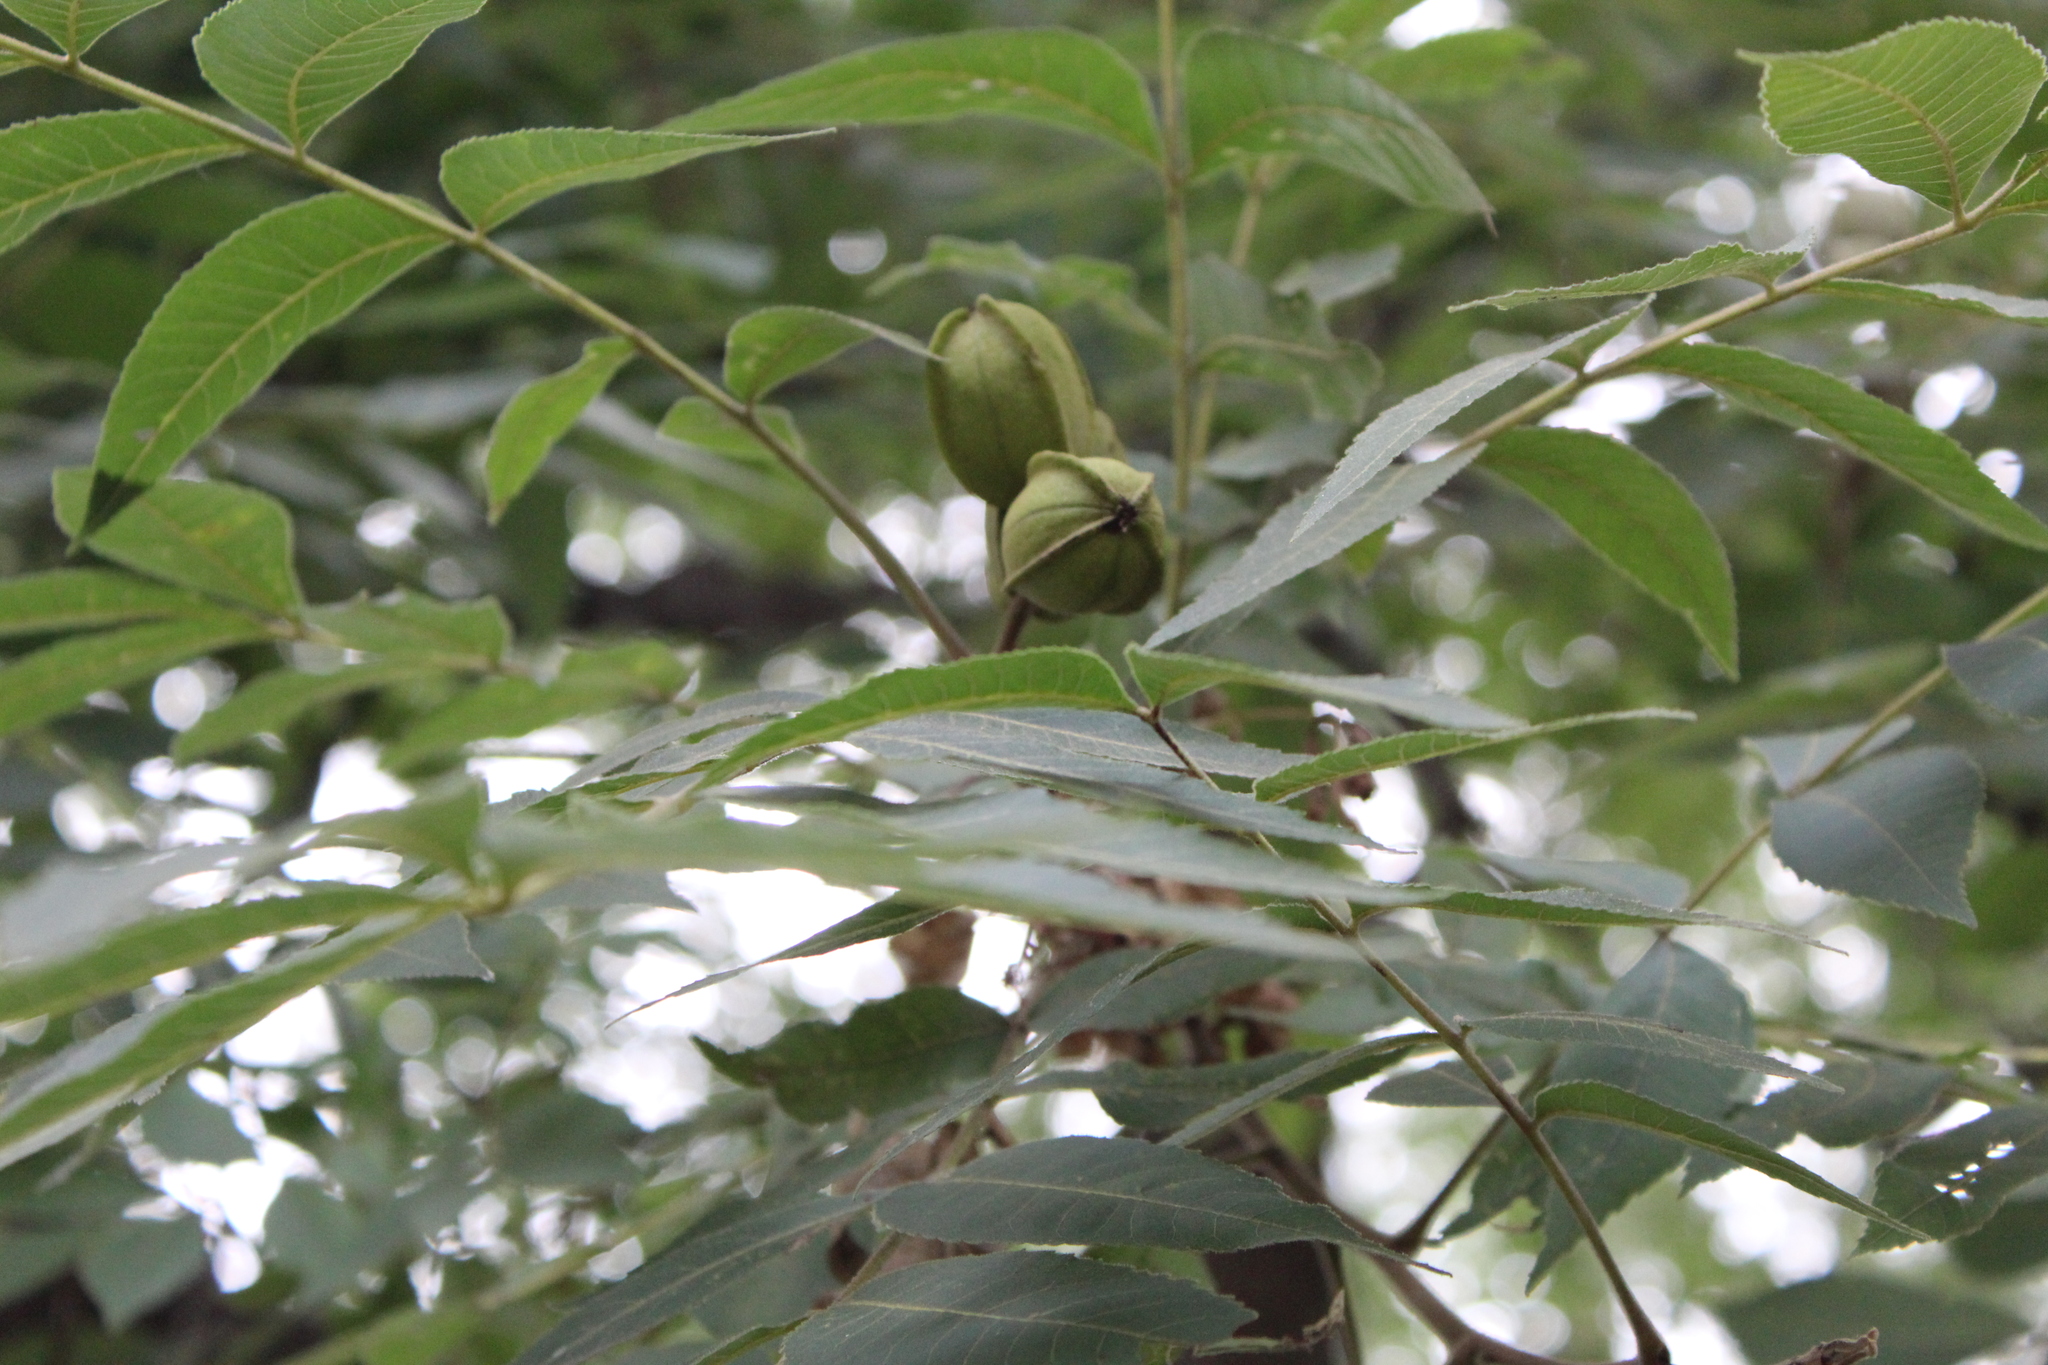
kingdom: Plantae
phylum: Tracheophyta
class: Magnoliopsida
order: Fagales
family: Juglandaceae
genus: Carya
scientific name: Carya illinoinensis
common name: Pecan
